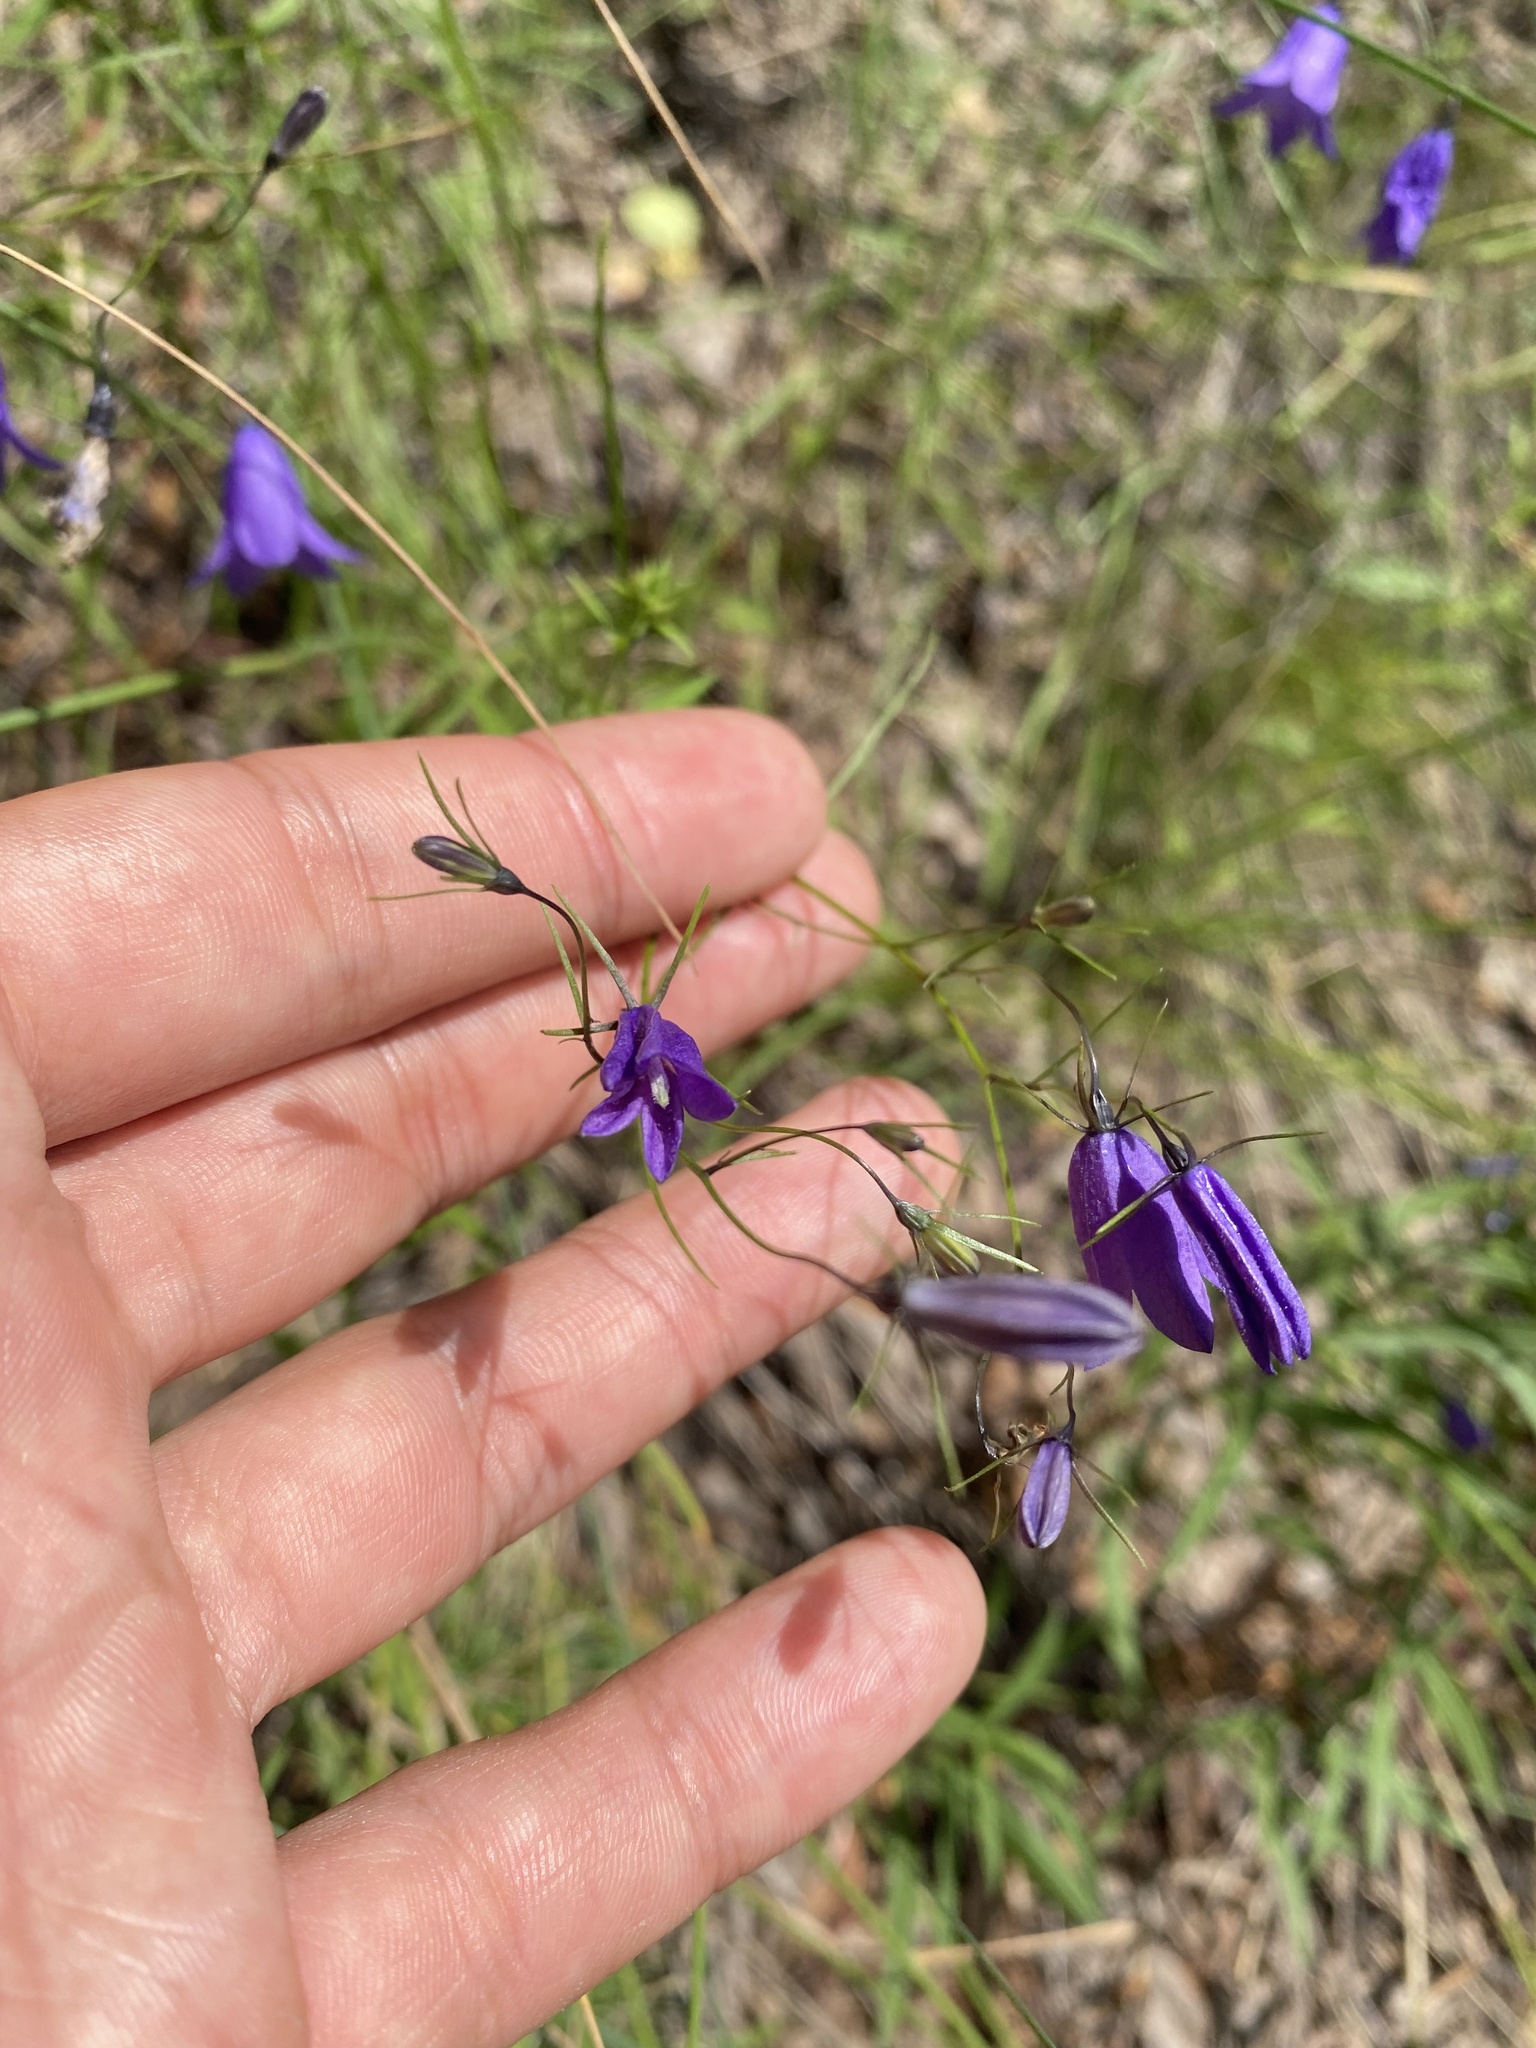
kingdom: Plantae
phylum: Tracheophyta
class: Magnoliopsida
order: Asterales
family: Campanulaceae
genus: Campanula
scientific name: Campanula rotundifolia
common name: Harebell
